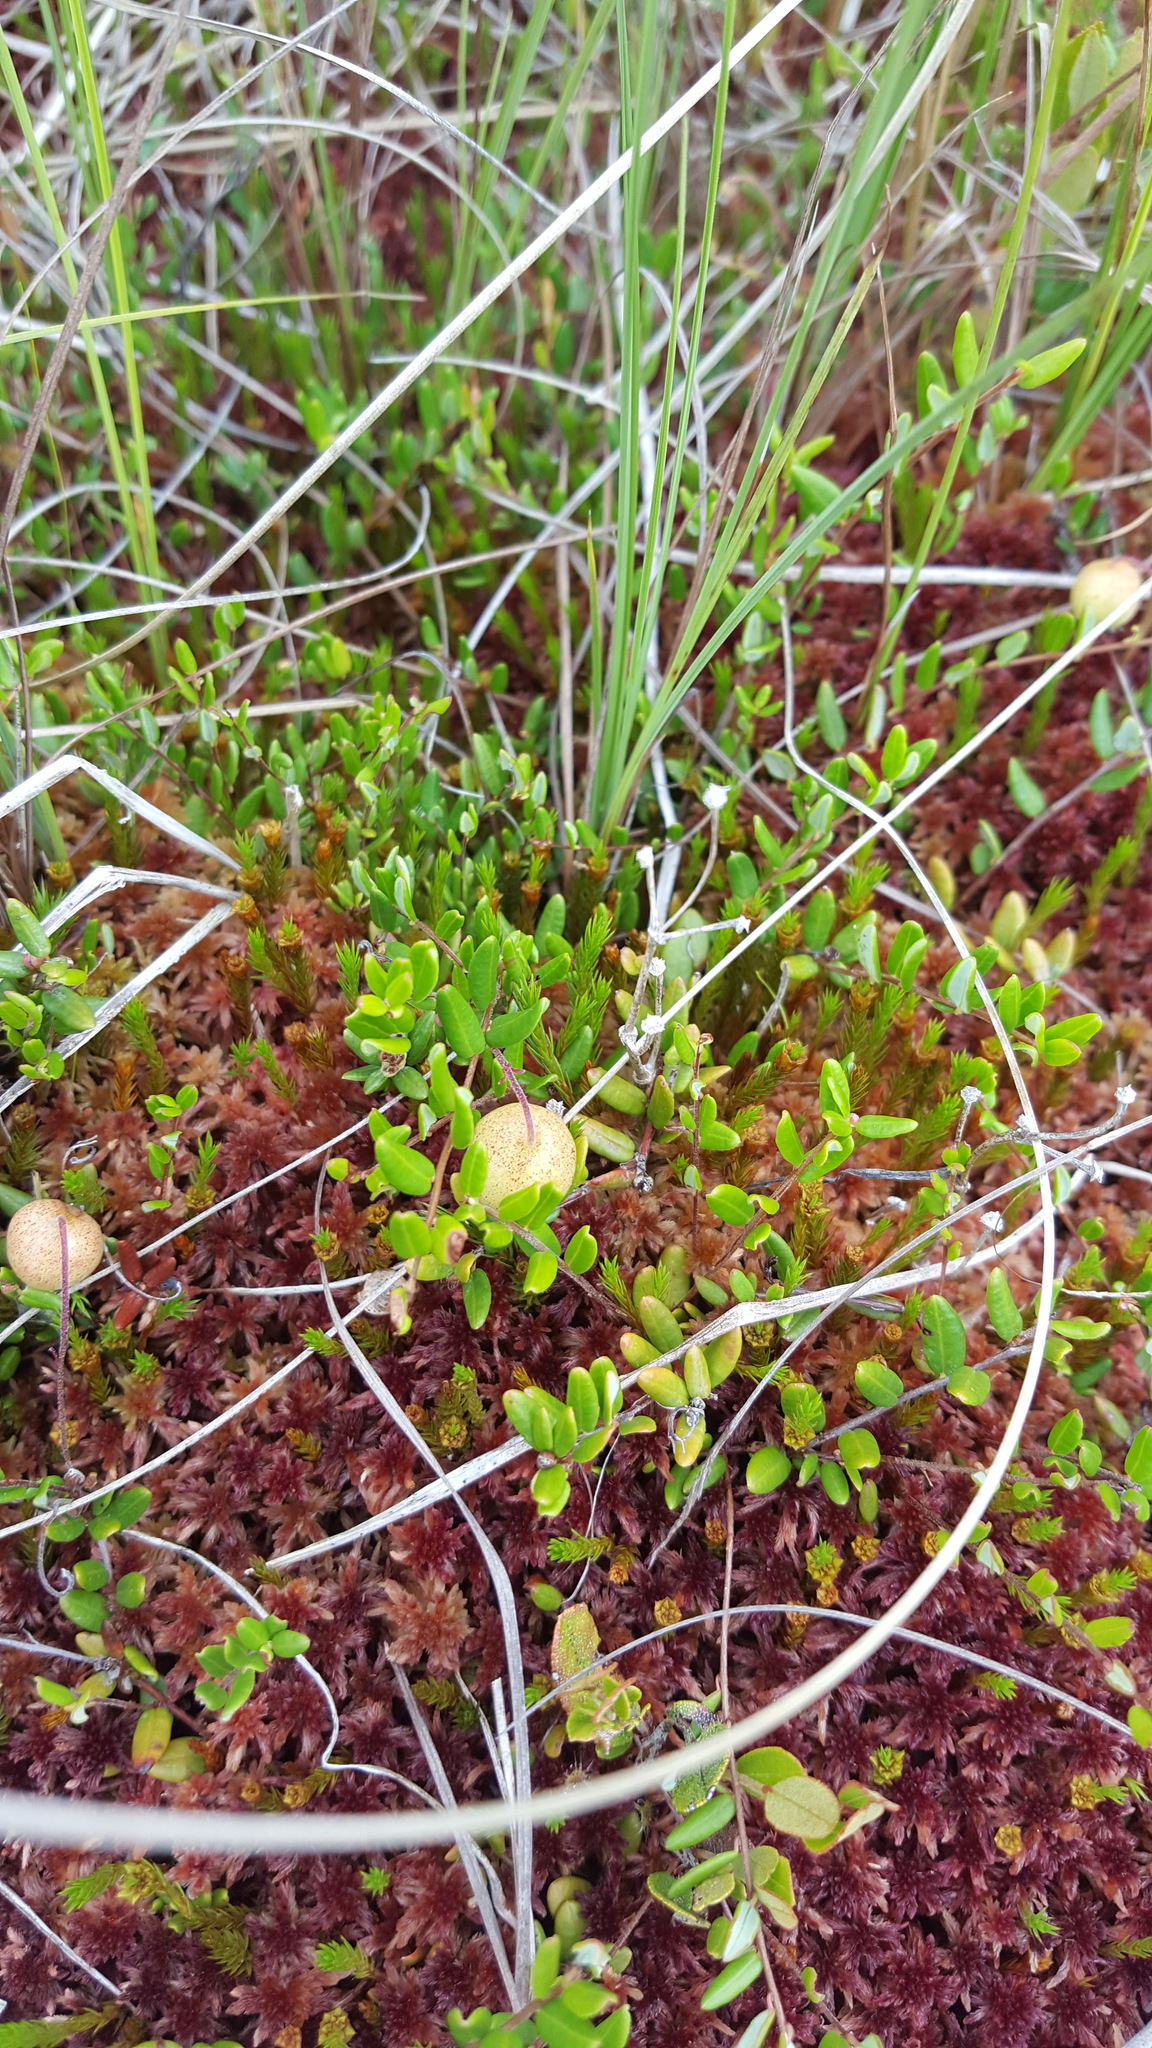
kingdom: Plantae
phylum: Tracheophyta
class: Magnoliopsida
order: Ericales
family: Ericaceae
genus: Vaccinium
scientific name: Vaccinium oxycoccos
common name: Cranberry
